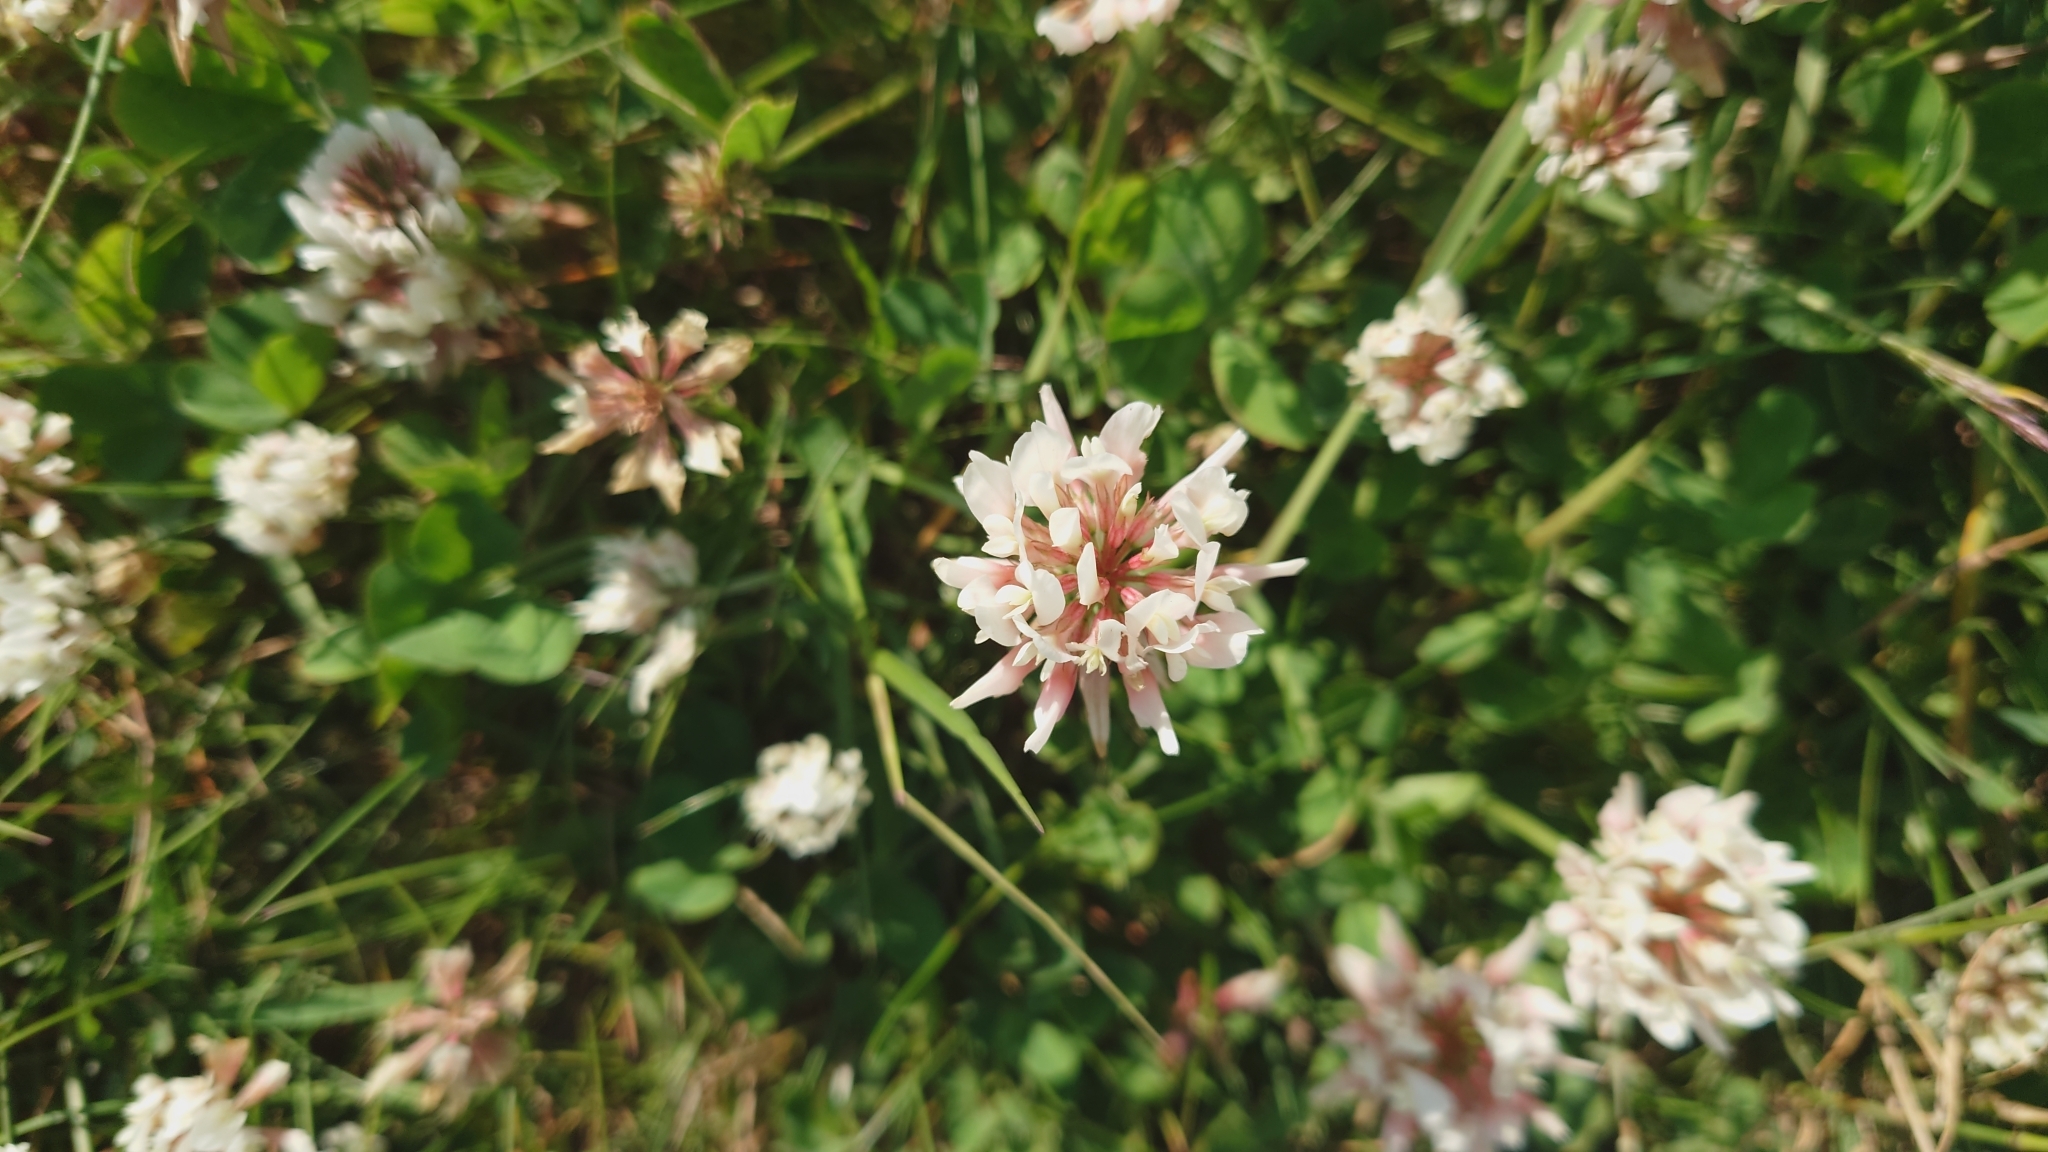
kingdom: Plantae
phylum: Tracheophyta
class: Magnoliopsida
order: Fabales
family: Fabaceae
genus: Trifolium
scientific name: Trifolium repens
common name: White clover
